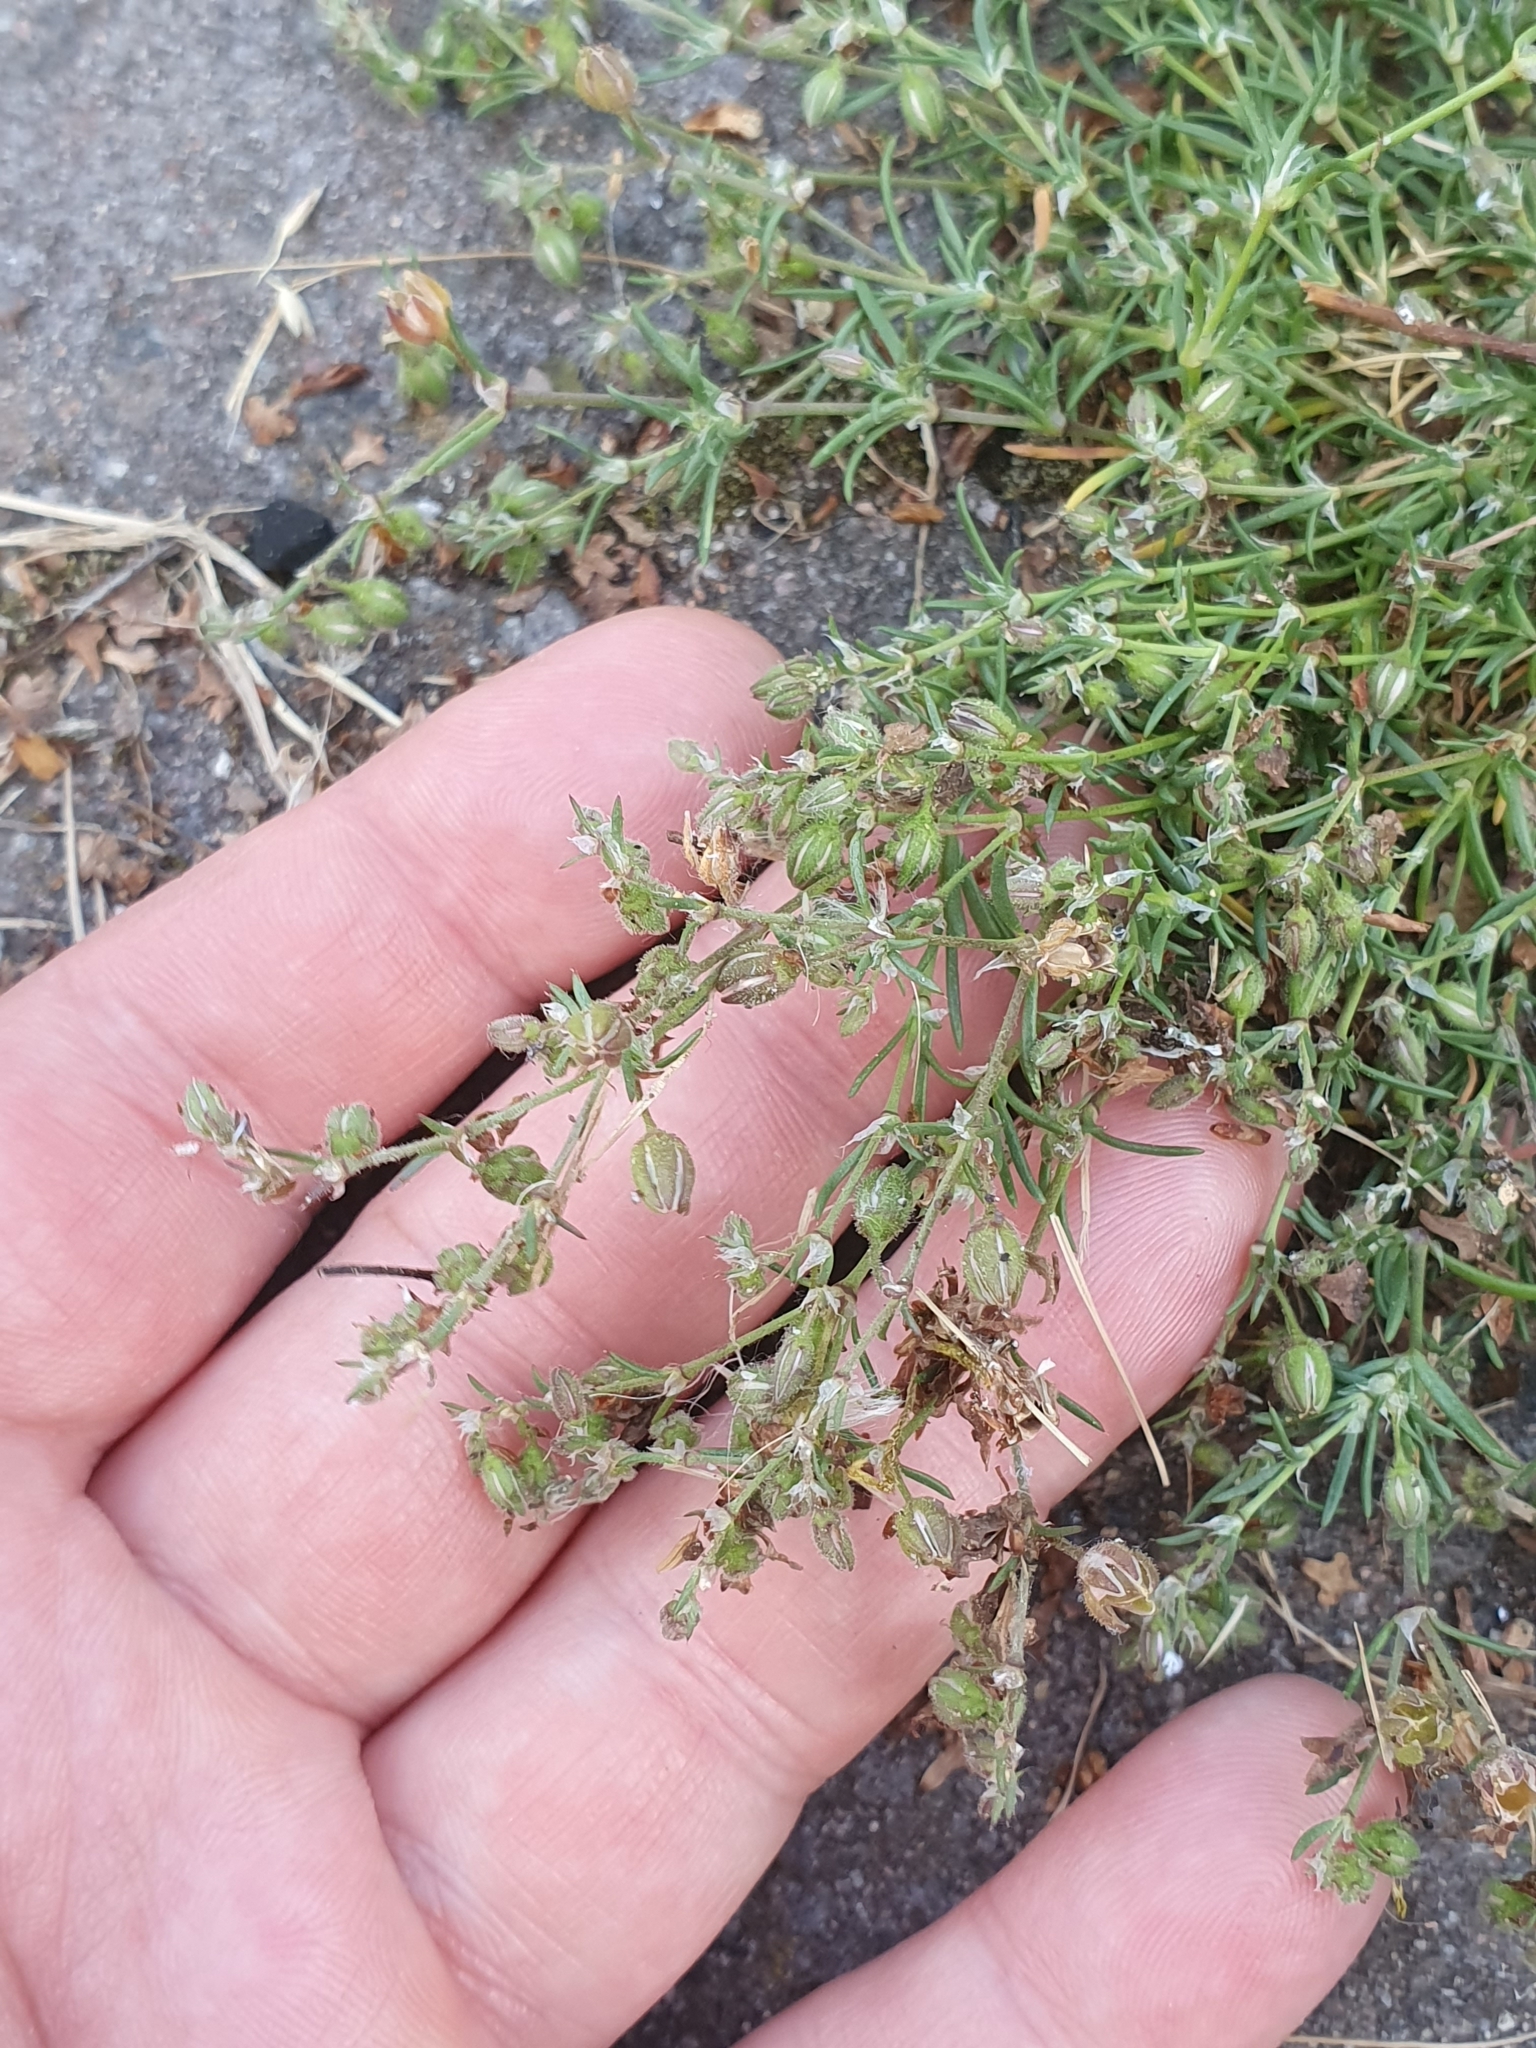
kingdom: Plantae
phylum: Tracheophyta
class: Magnoliopsida
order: Caryophyllales
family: Caryophyllaceae
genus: Spergularia
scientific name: Spergularia rubra
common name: Red sand-spurrey
